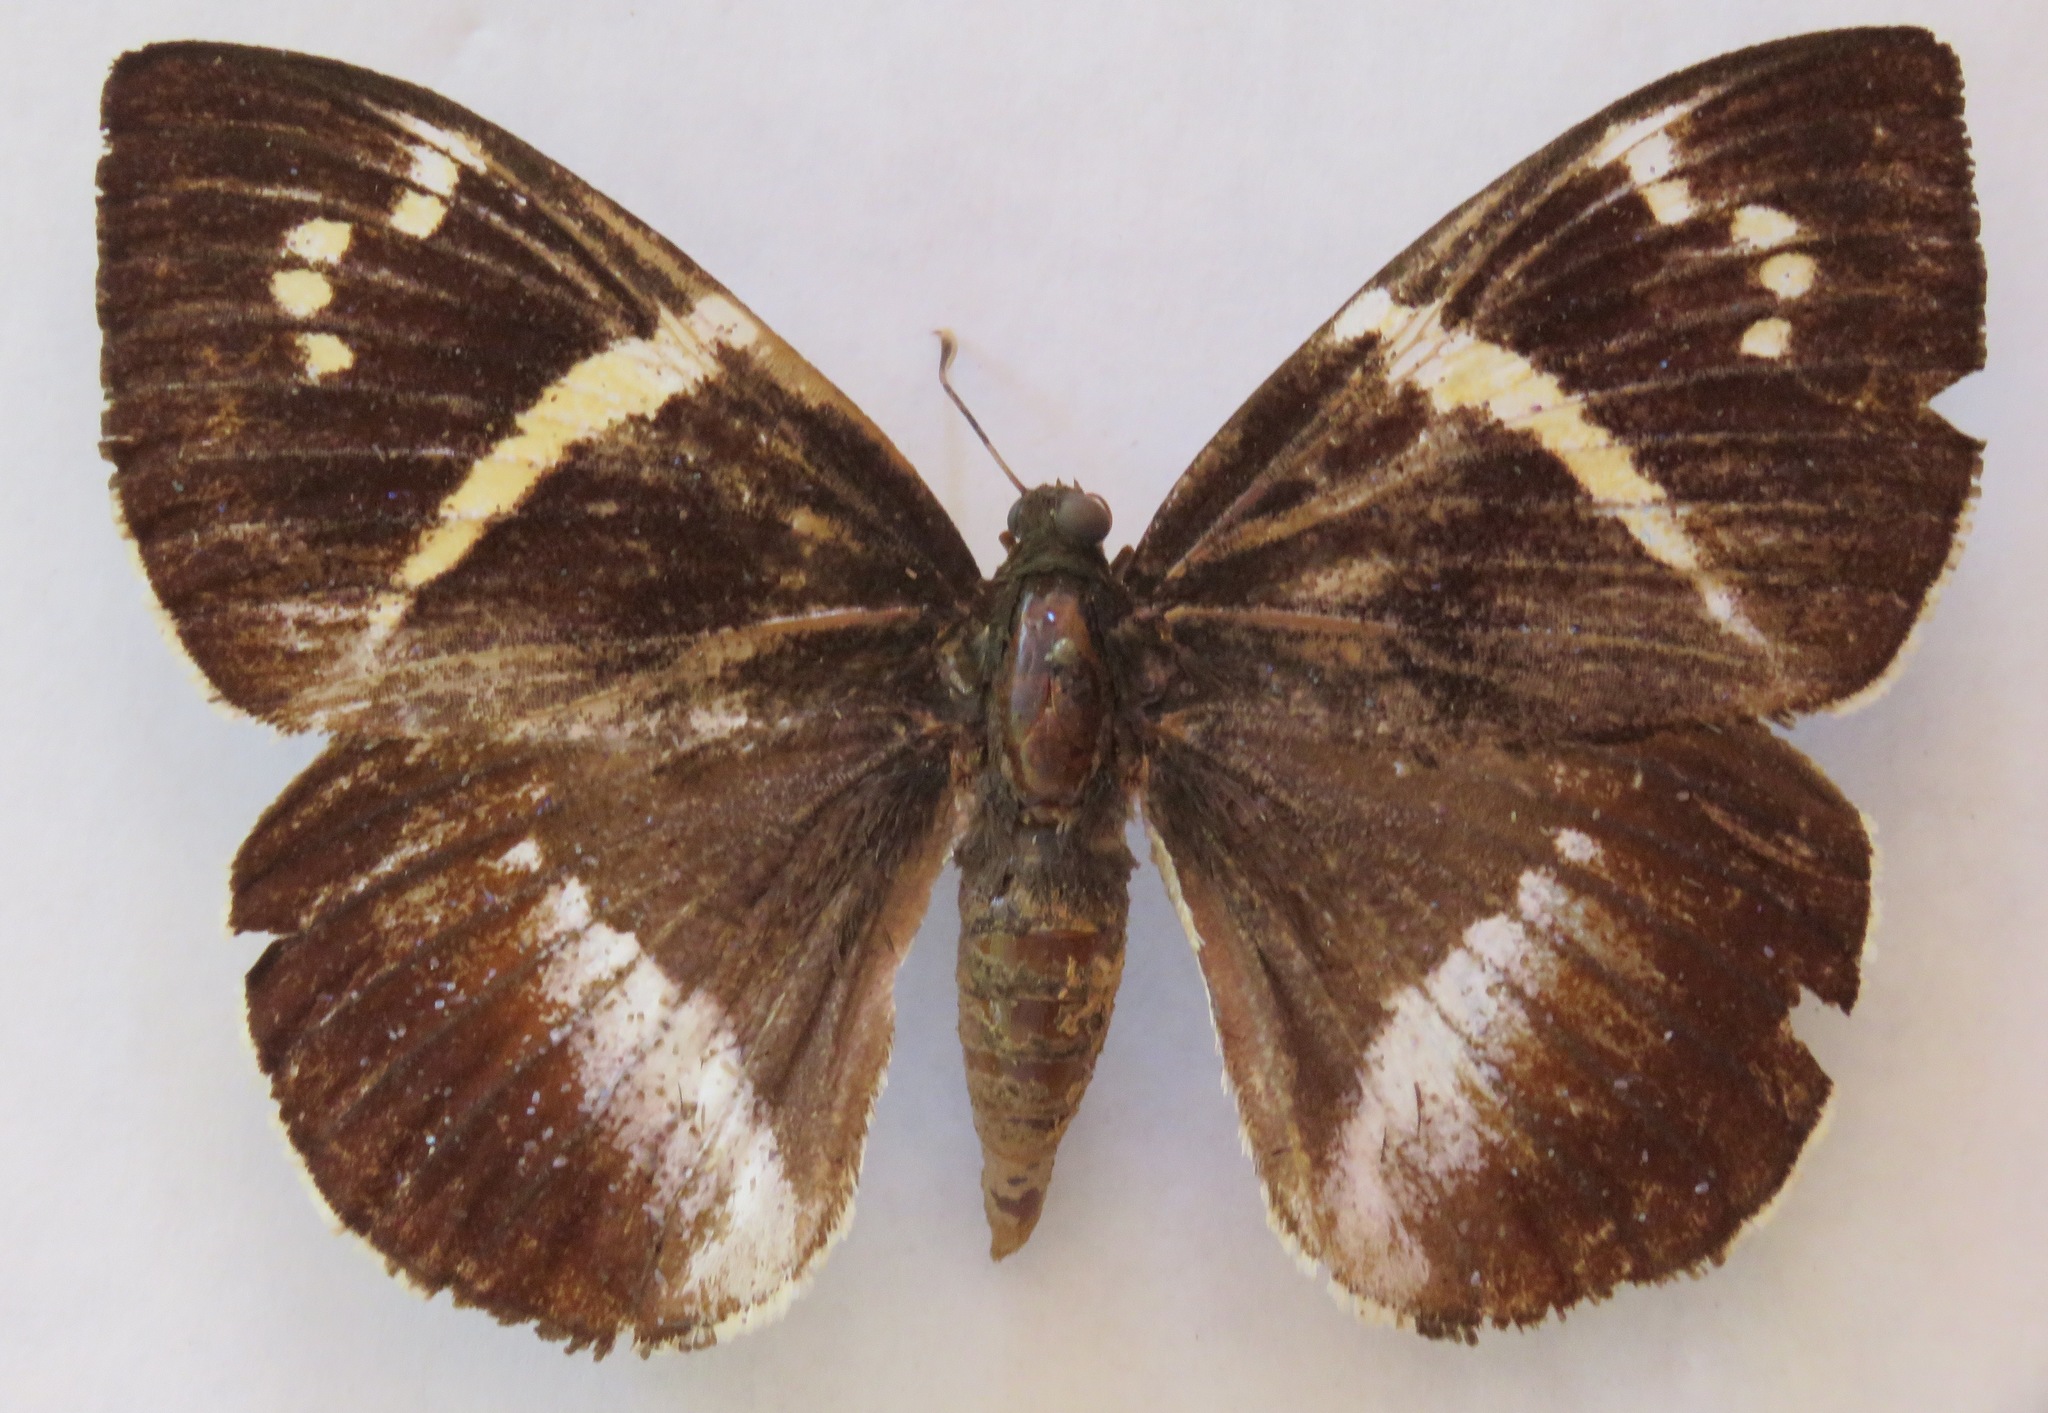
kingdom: Animalia
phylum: Arthropoda
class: Insecta
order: Lepidoptera
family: Castniidae
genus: Castniomera
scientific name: Castniomera atymnius
